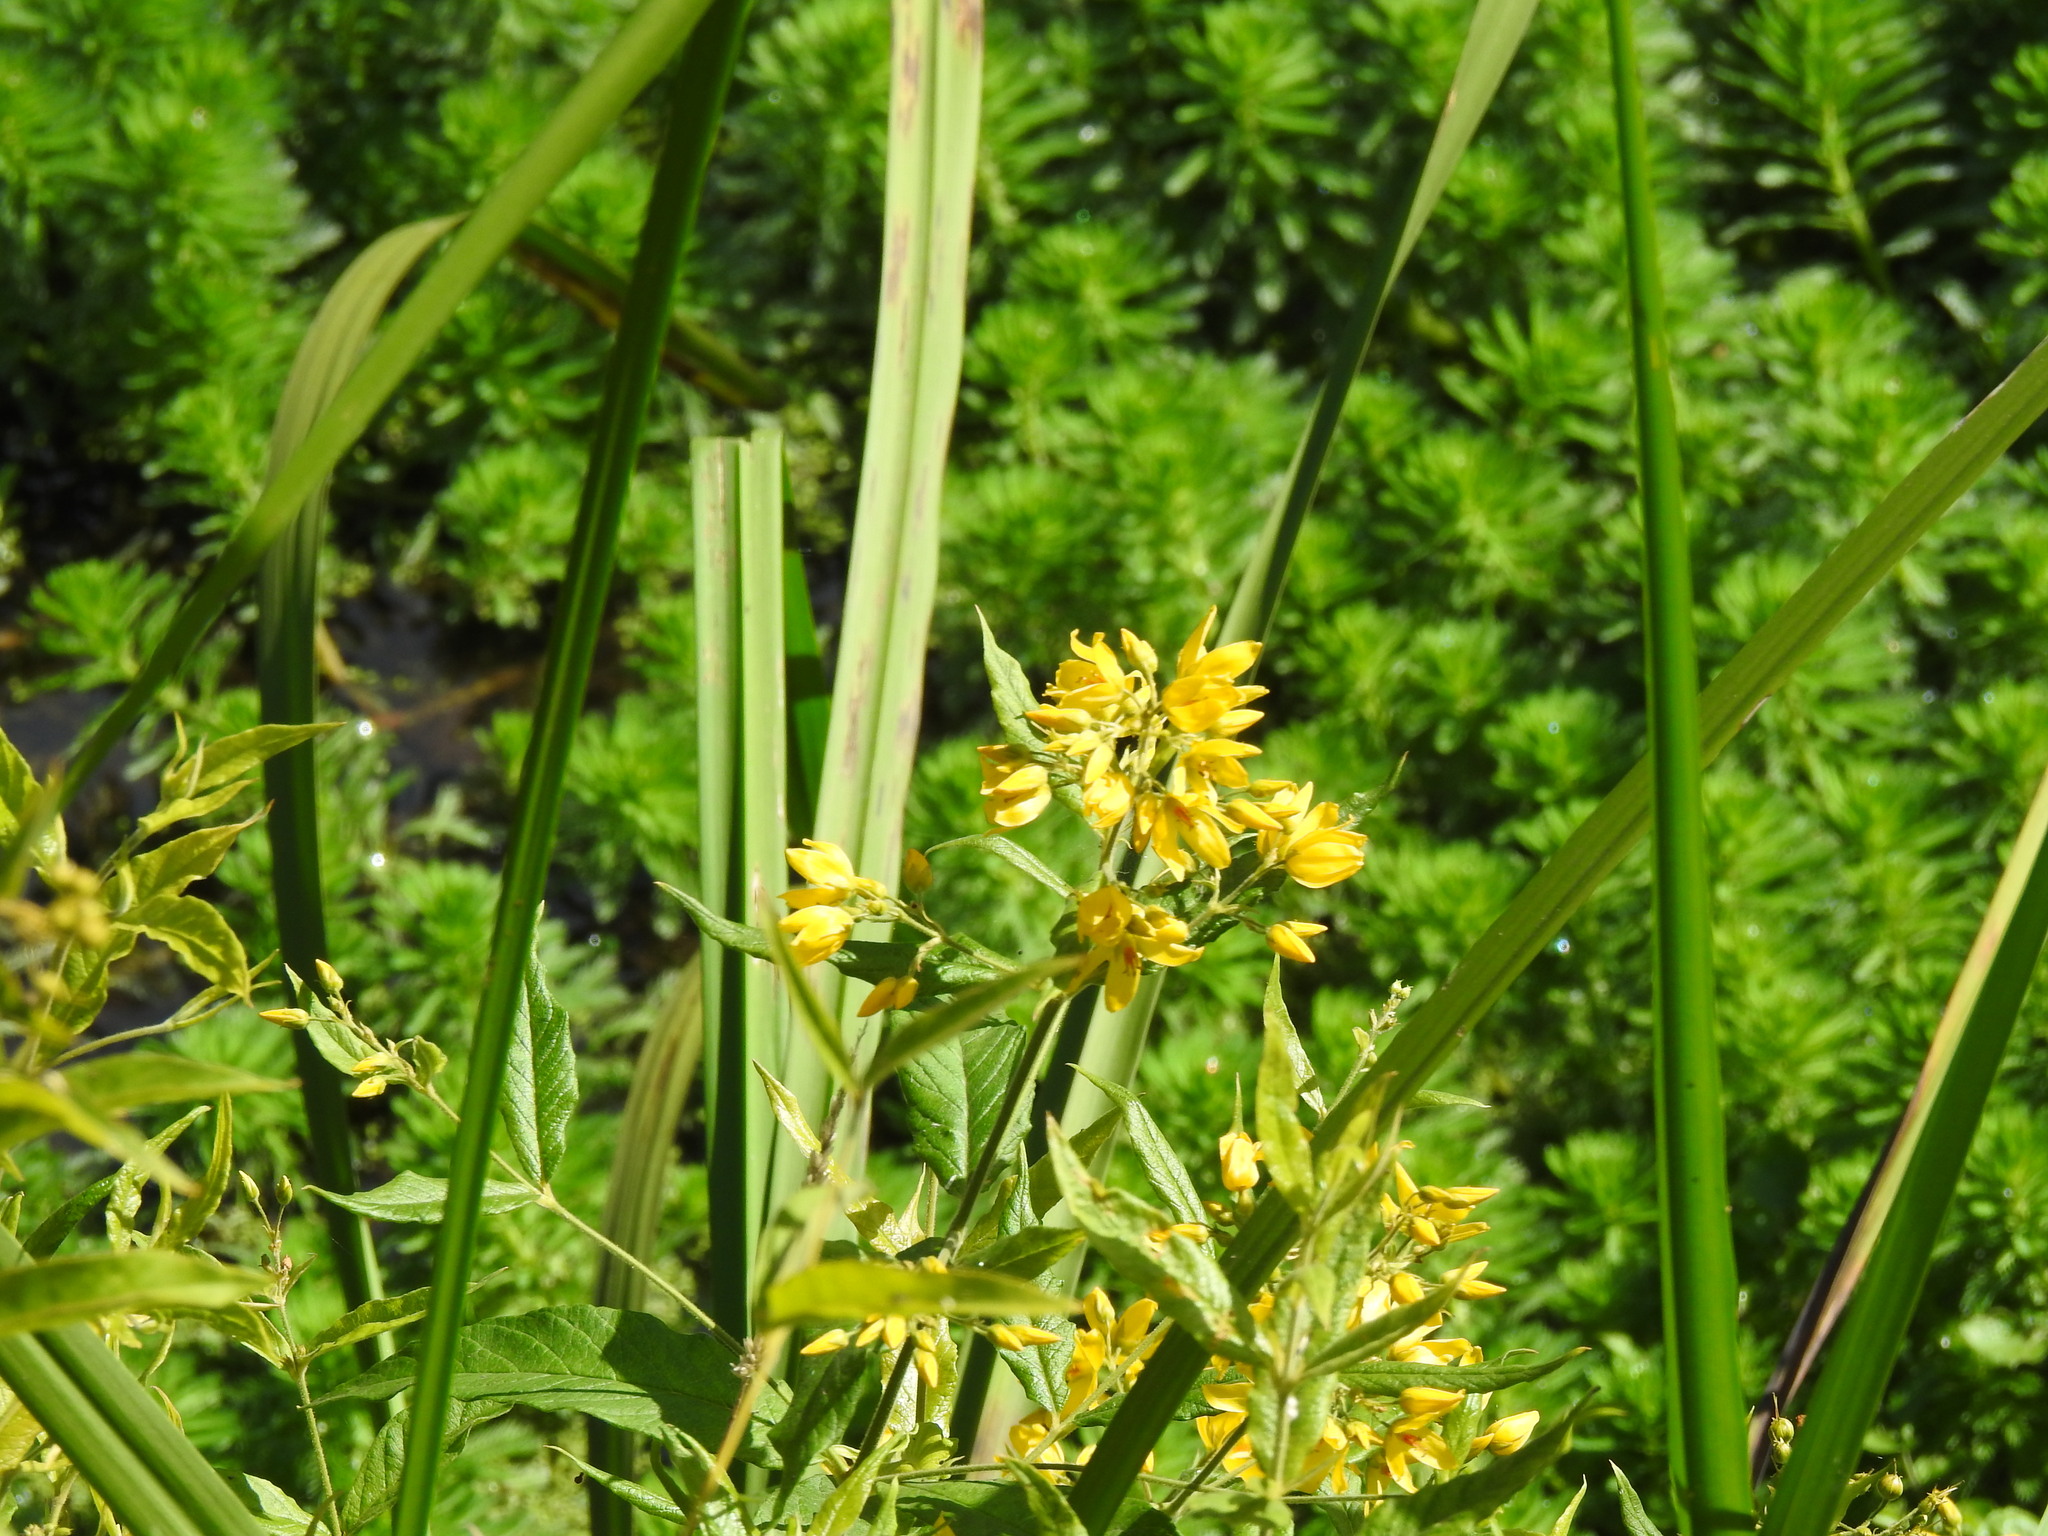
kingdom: Plantae
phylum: Tracheophyta
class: Magnoliopsida
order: Ericales
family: Primulaceae
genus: Lysimachia
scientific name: Lysimachia vulgaris
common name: Yellow loosestrife
